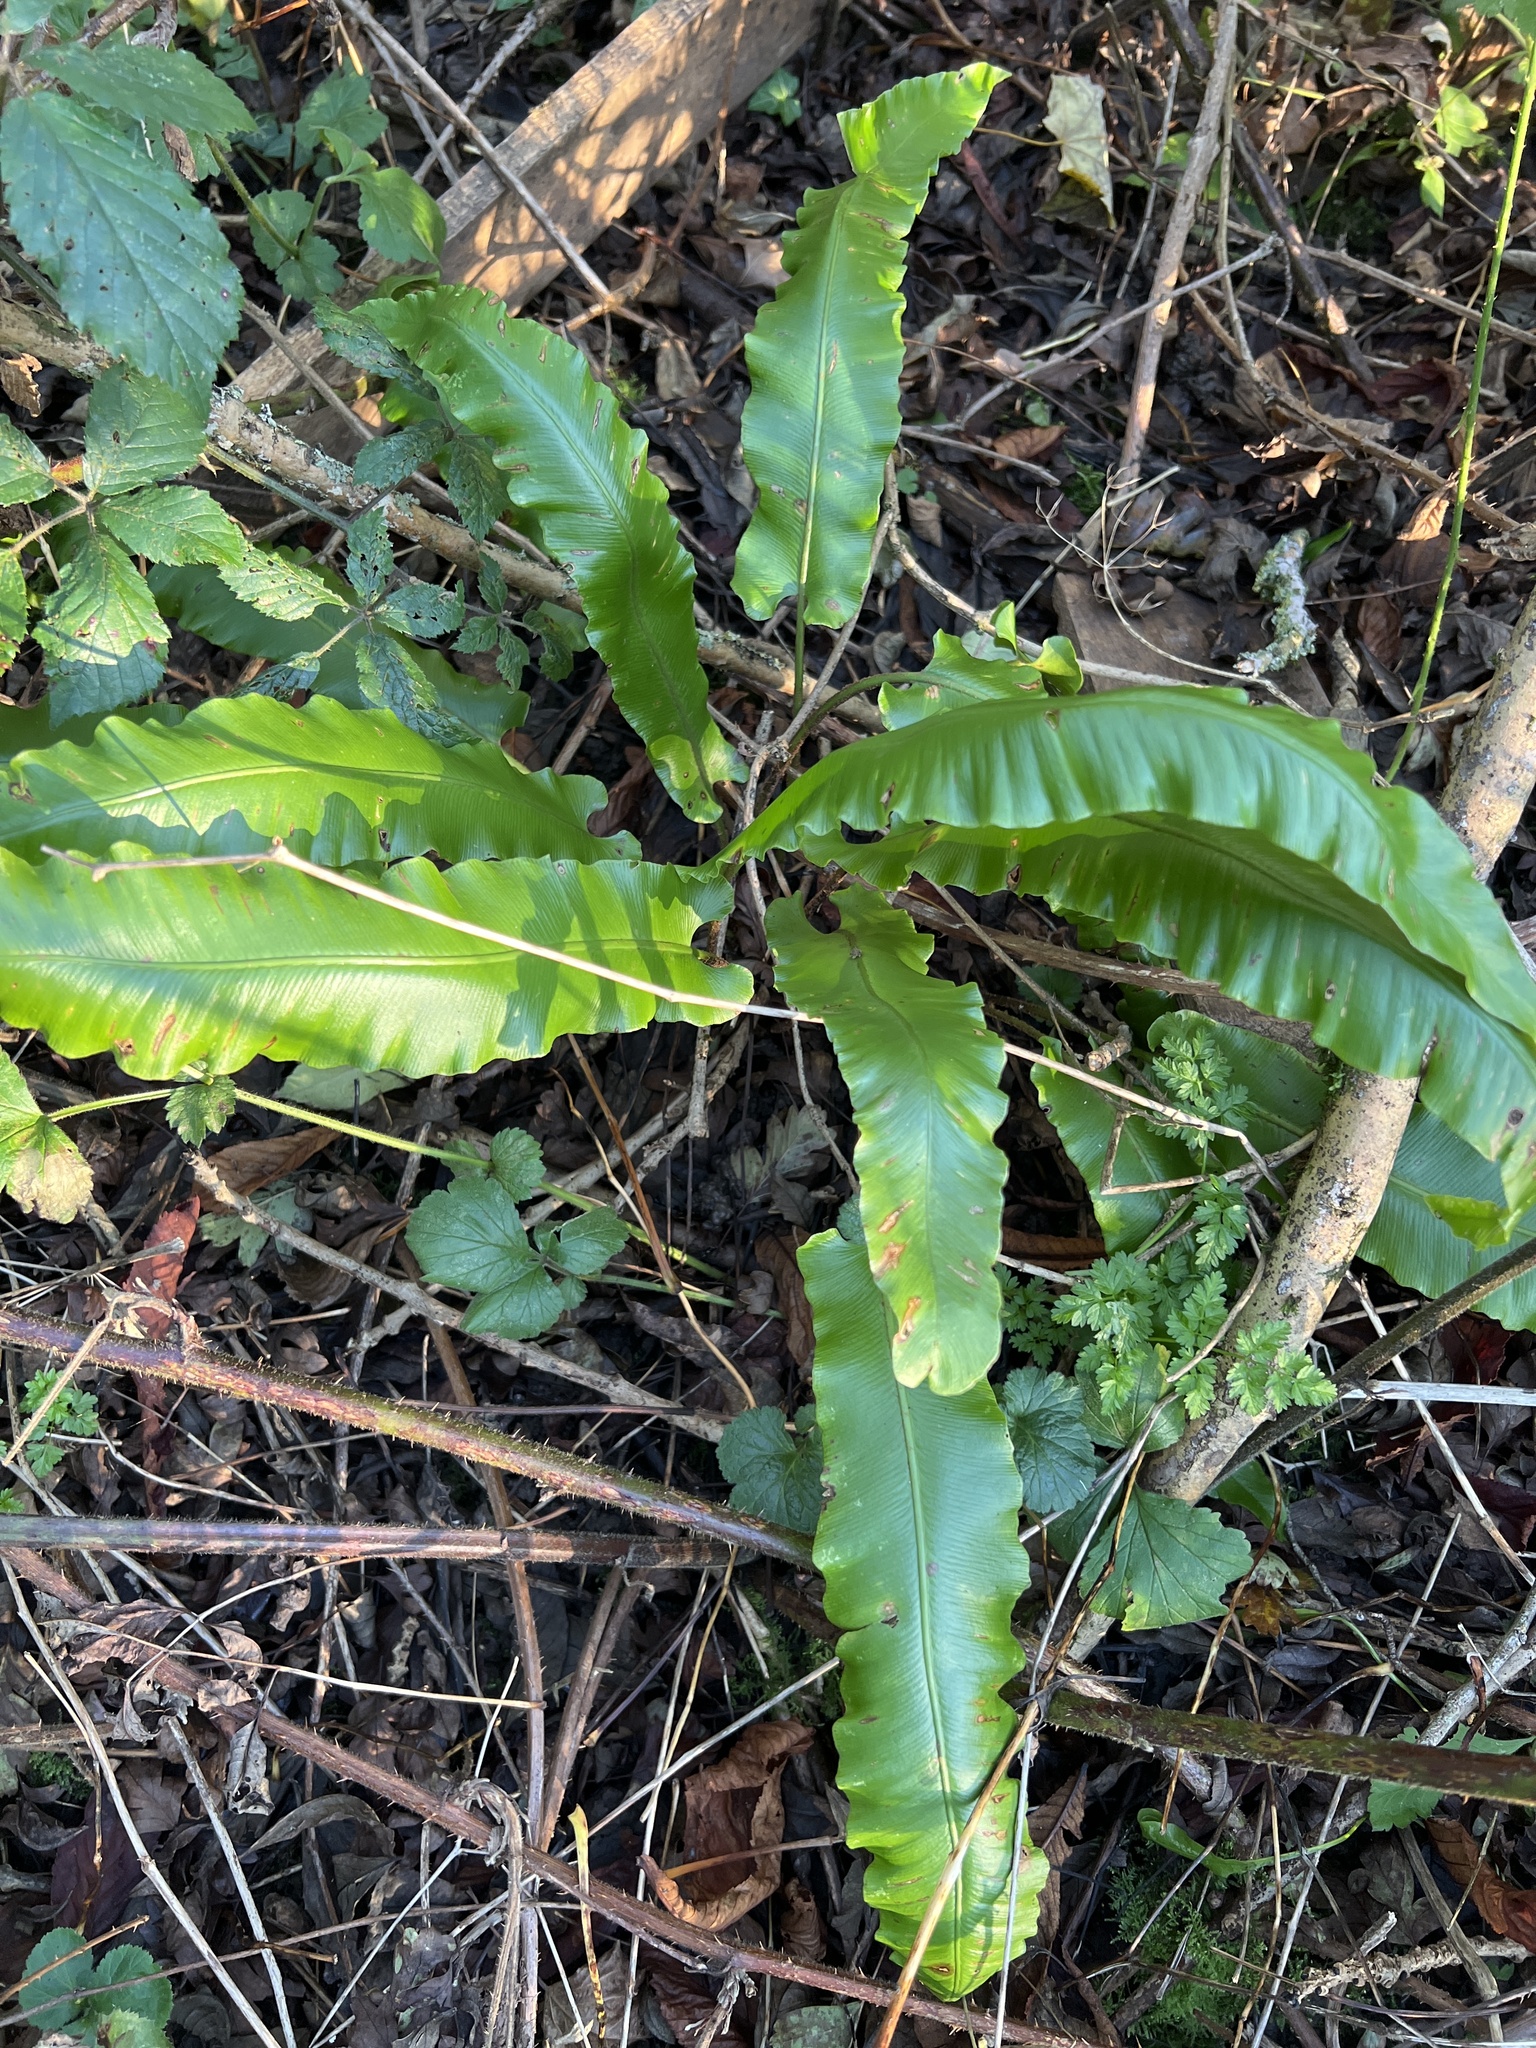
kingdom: Plantae
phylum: Tracheophyta
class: Polypodiopsida
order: Polypodiales
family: Aspleniaceae
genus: Asplenium
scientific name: Asplenium scolopendrium
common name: Hart's-tongue fern
